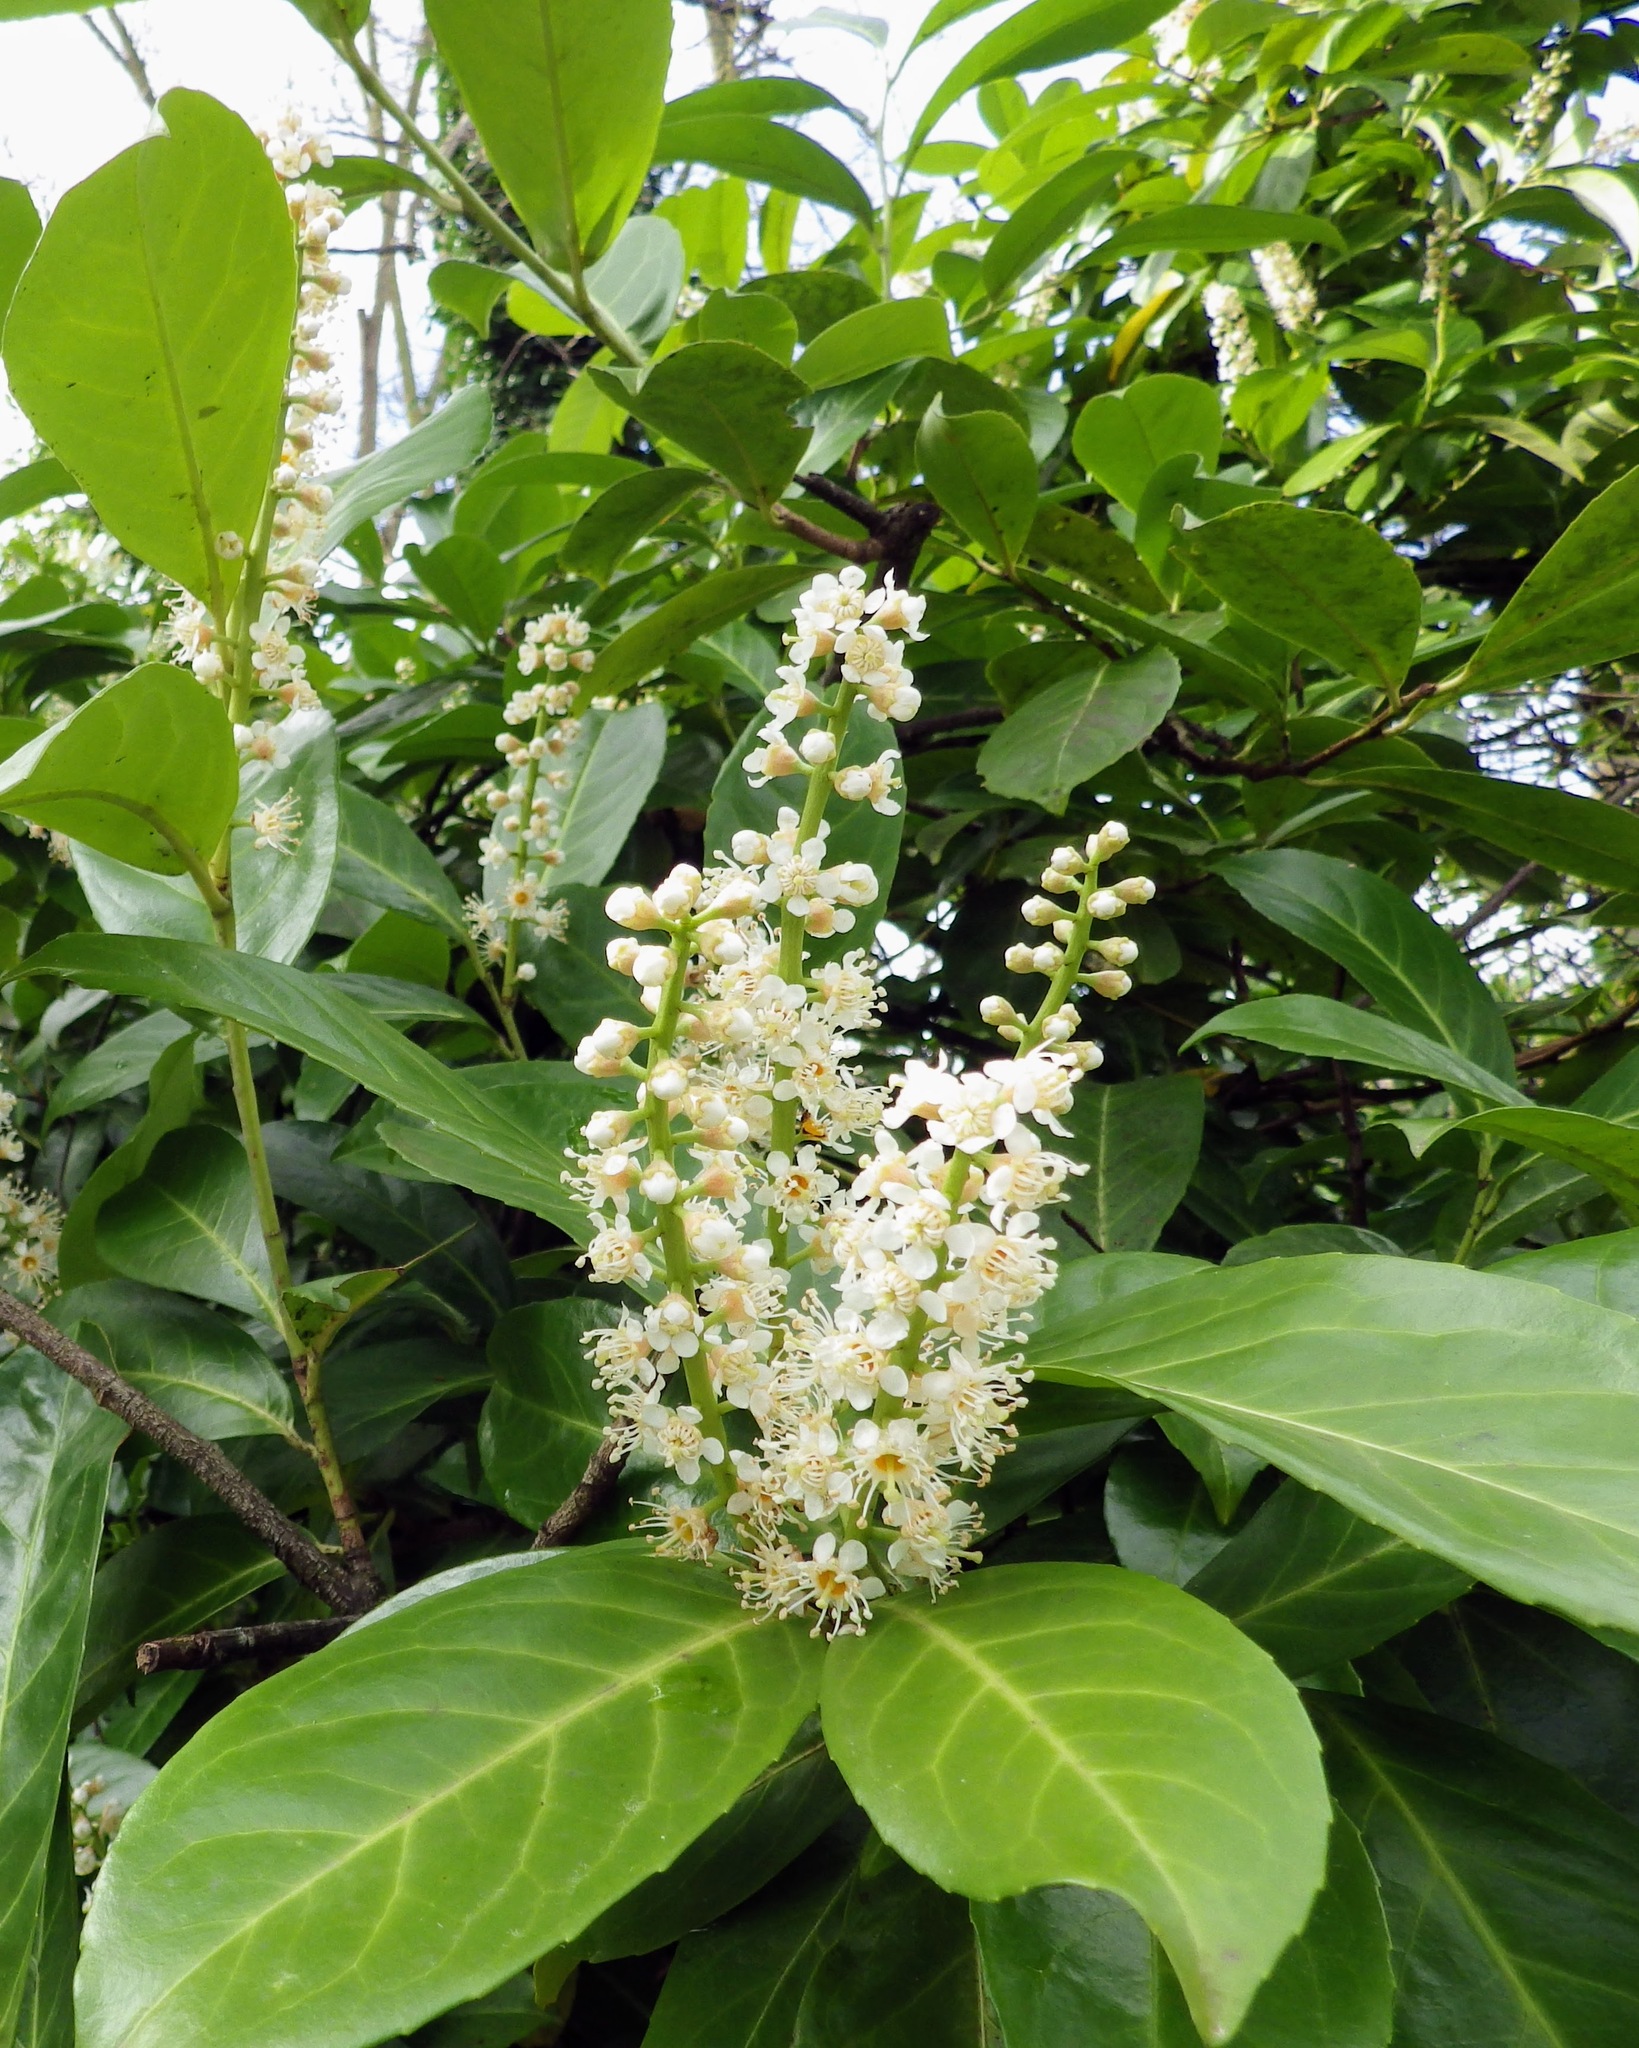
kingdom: Plantae
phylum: Tracheophyta
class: Magnoliopsida
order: Rosales
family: Rosaceae
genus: Prunus
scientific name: Prunus laurocerasus
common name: Cherry laurel
